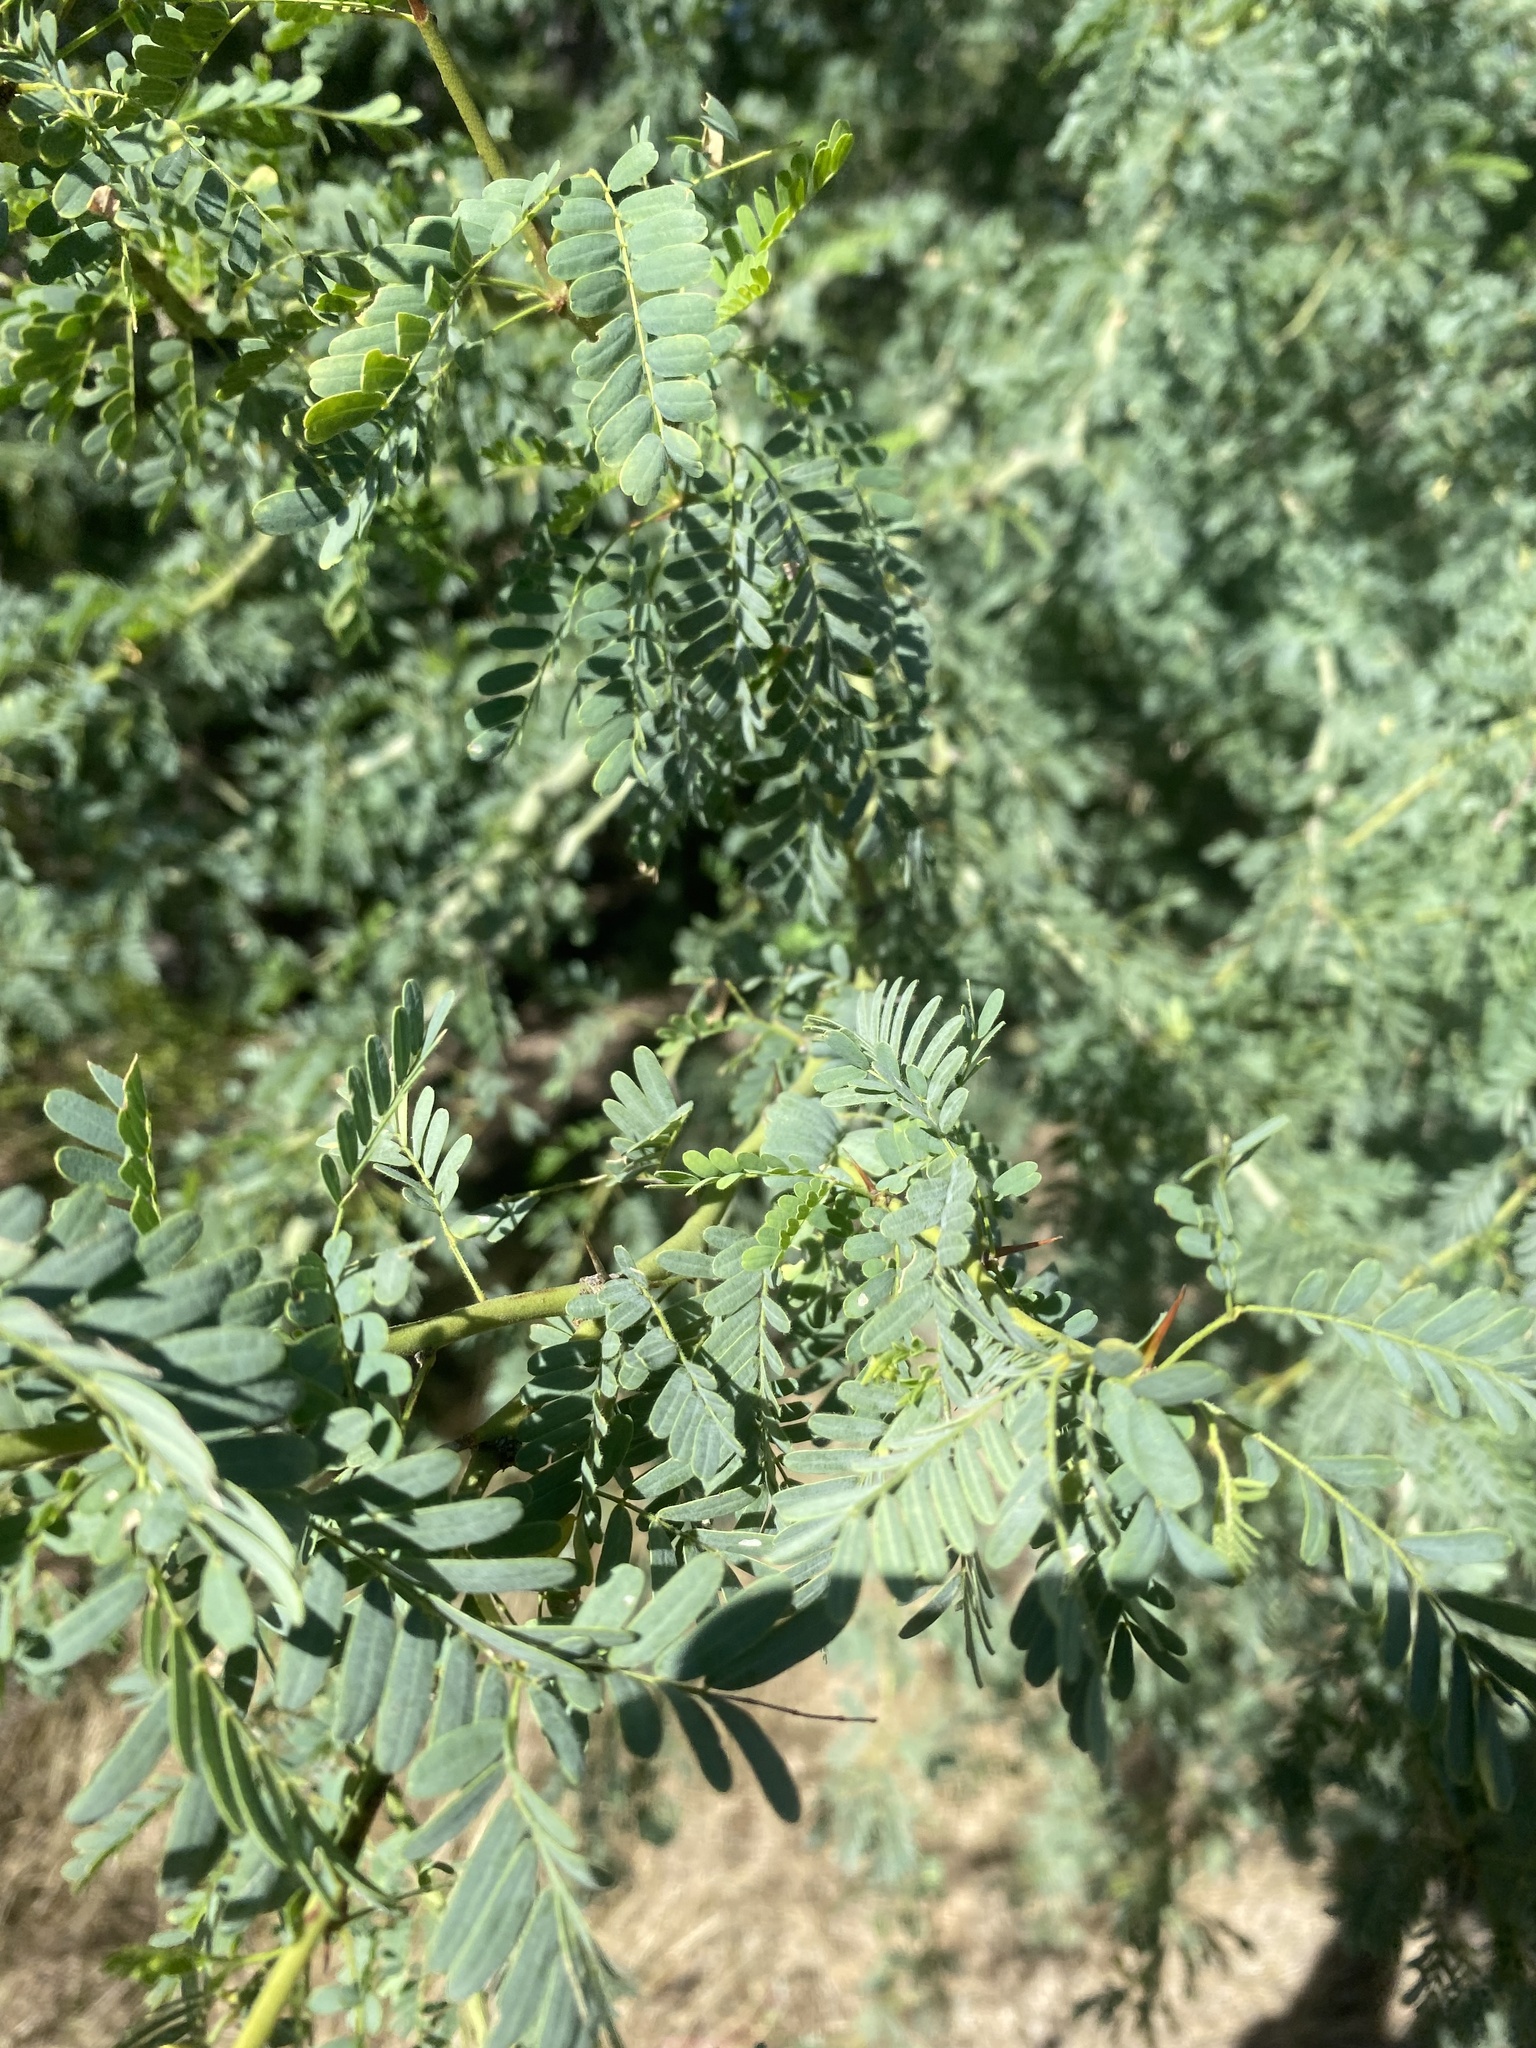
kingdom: Plantae
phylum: Tracheophyta
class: Magnoliopsida
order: Fabales
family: Fabaceae
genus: Parkinsonia
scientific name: Parkinsonia praecox
